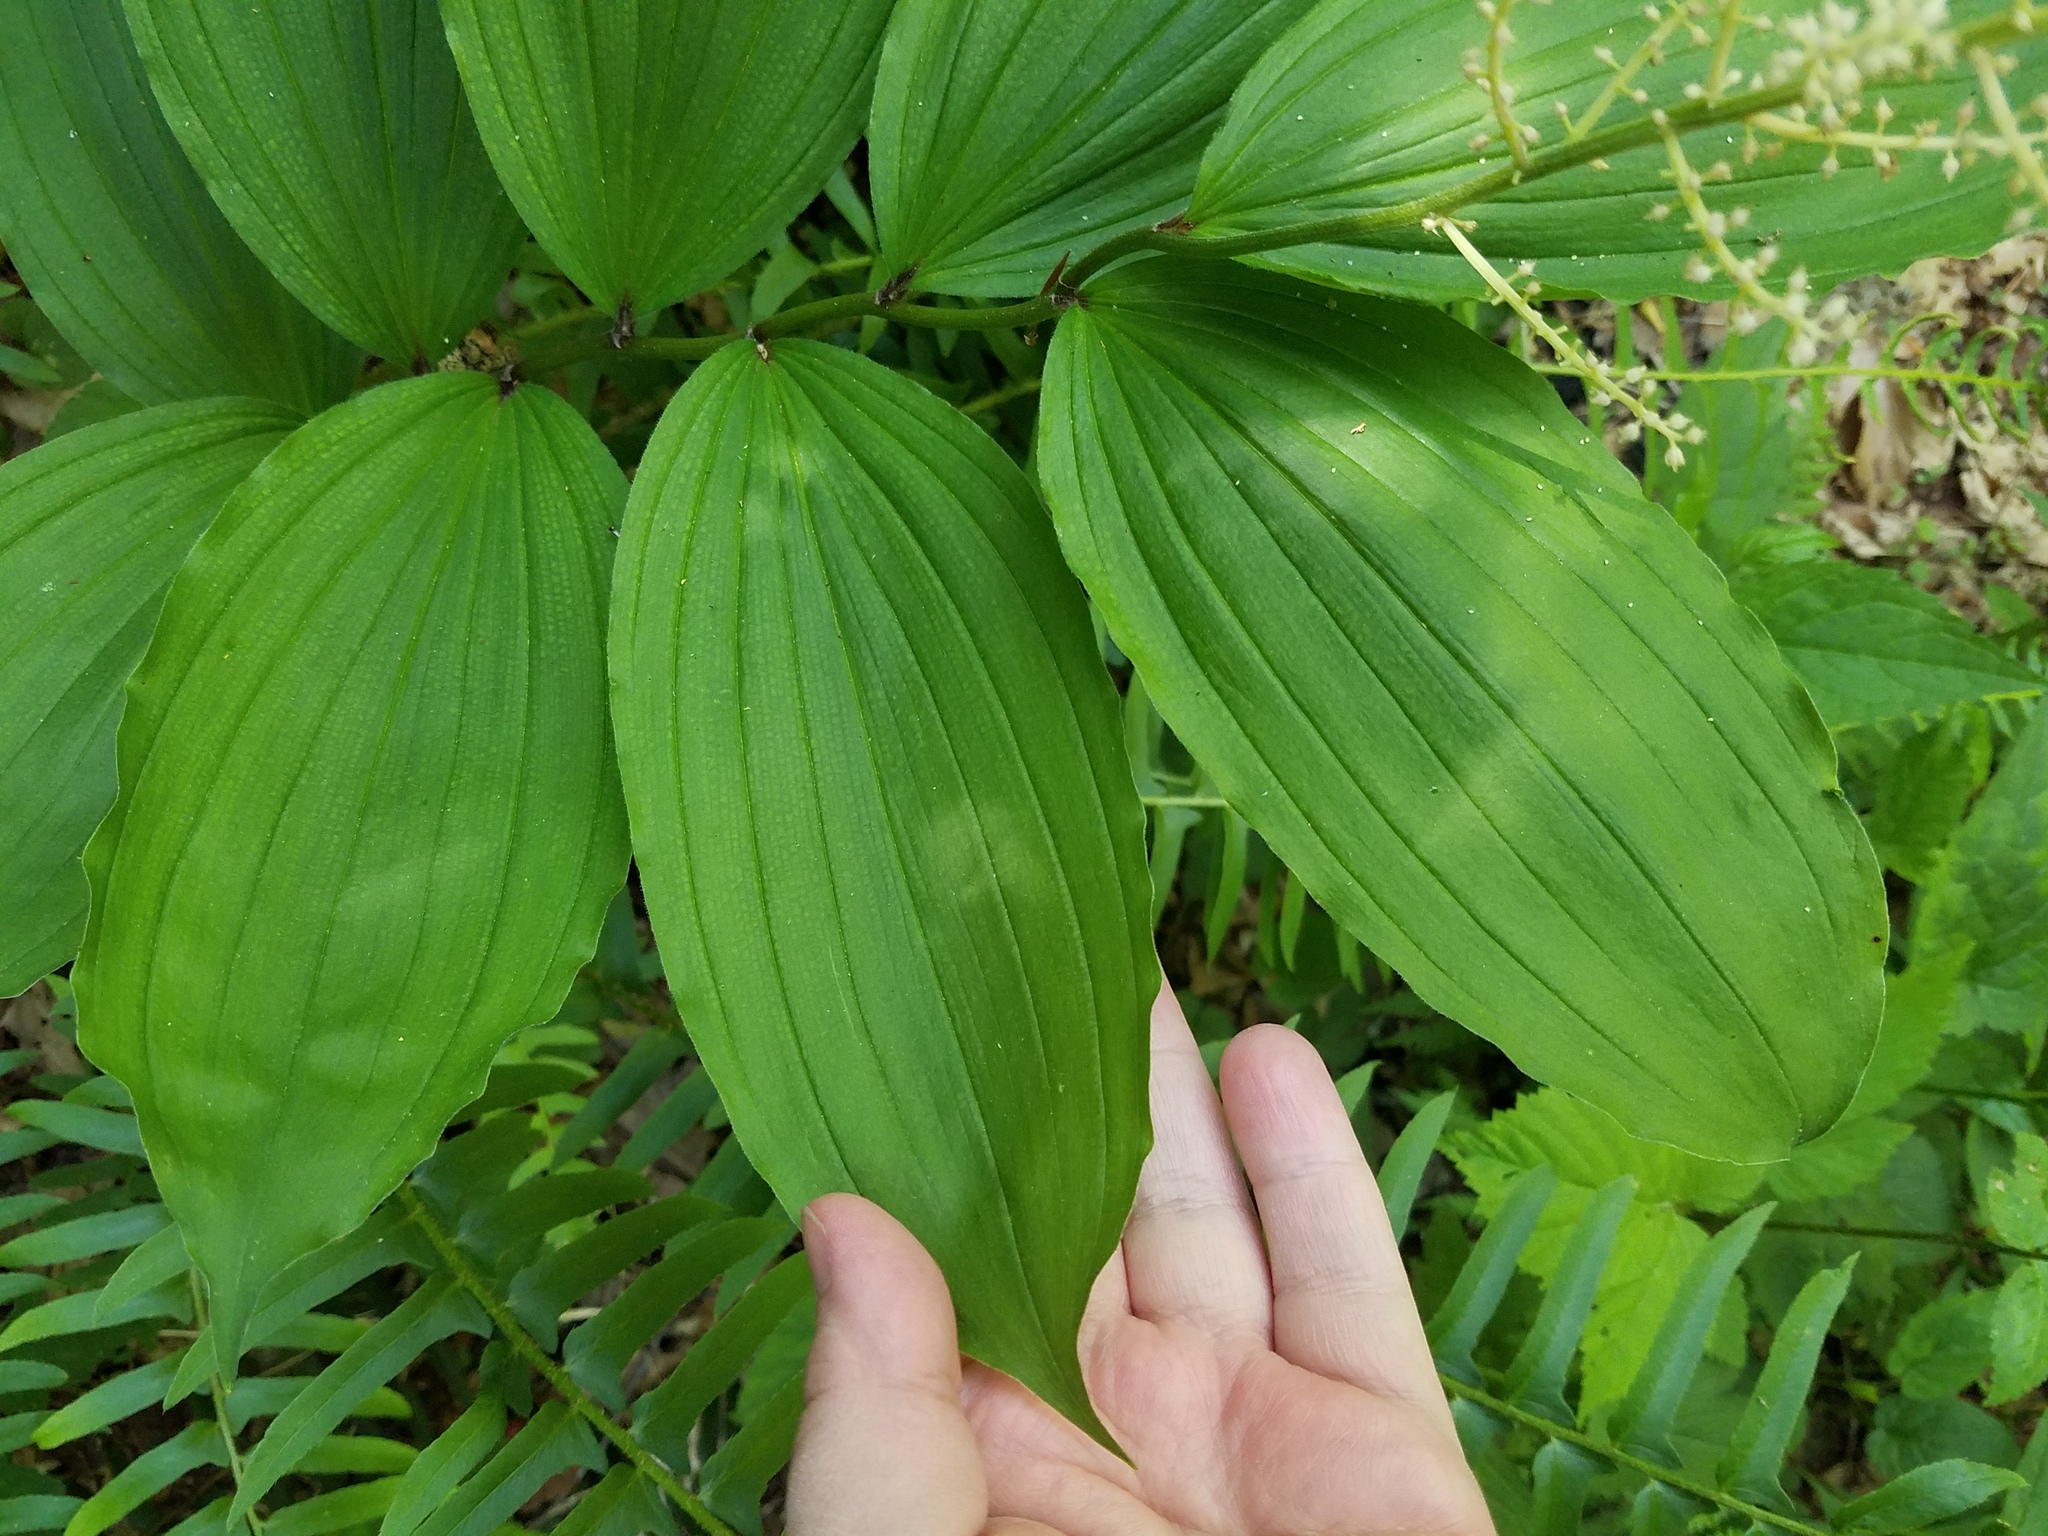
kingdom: Plantae
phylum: Tracheophyta
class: Liliopsida
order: Asparagales
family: Asparagaceae
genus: Maianthemum
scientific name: Maianthemum racemosum
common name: False spikenard
